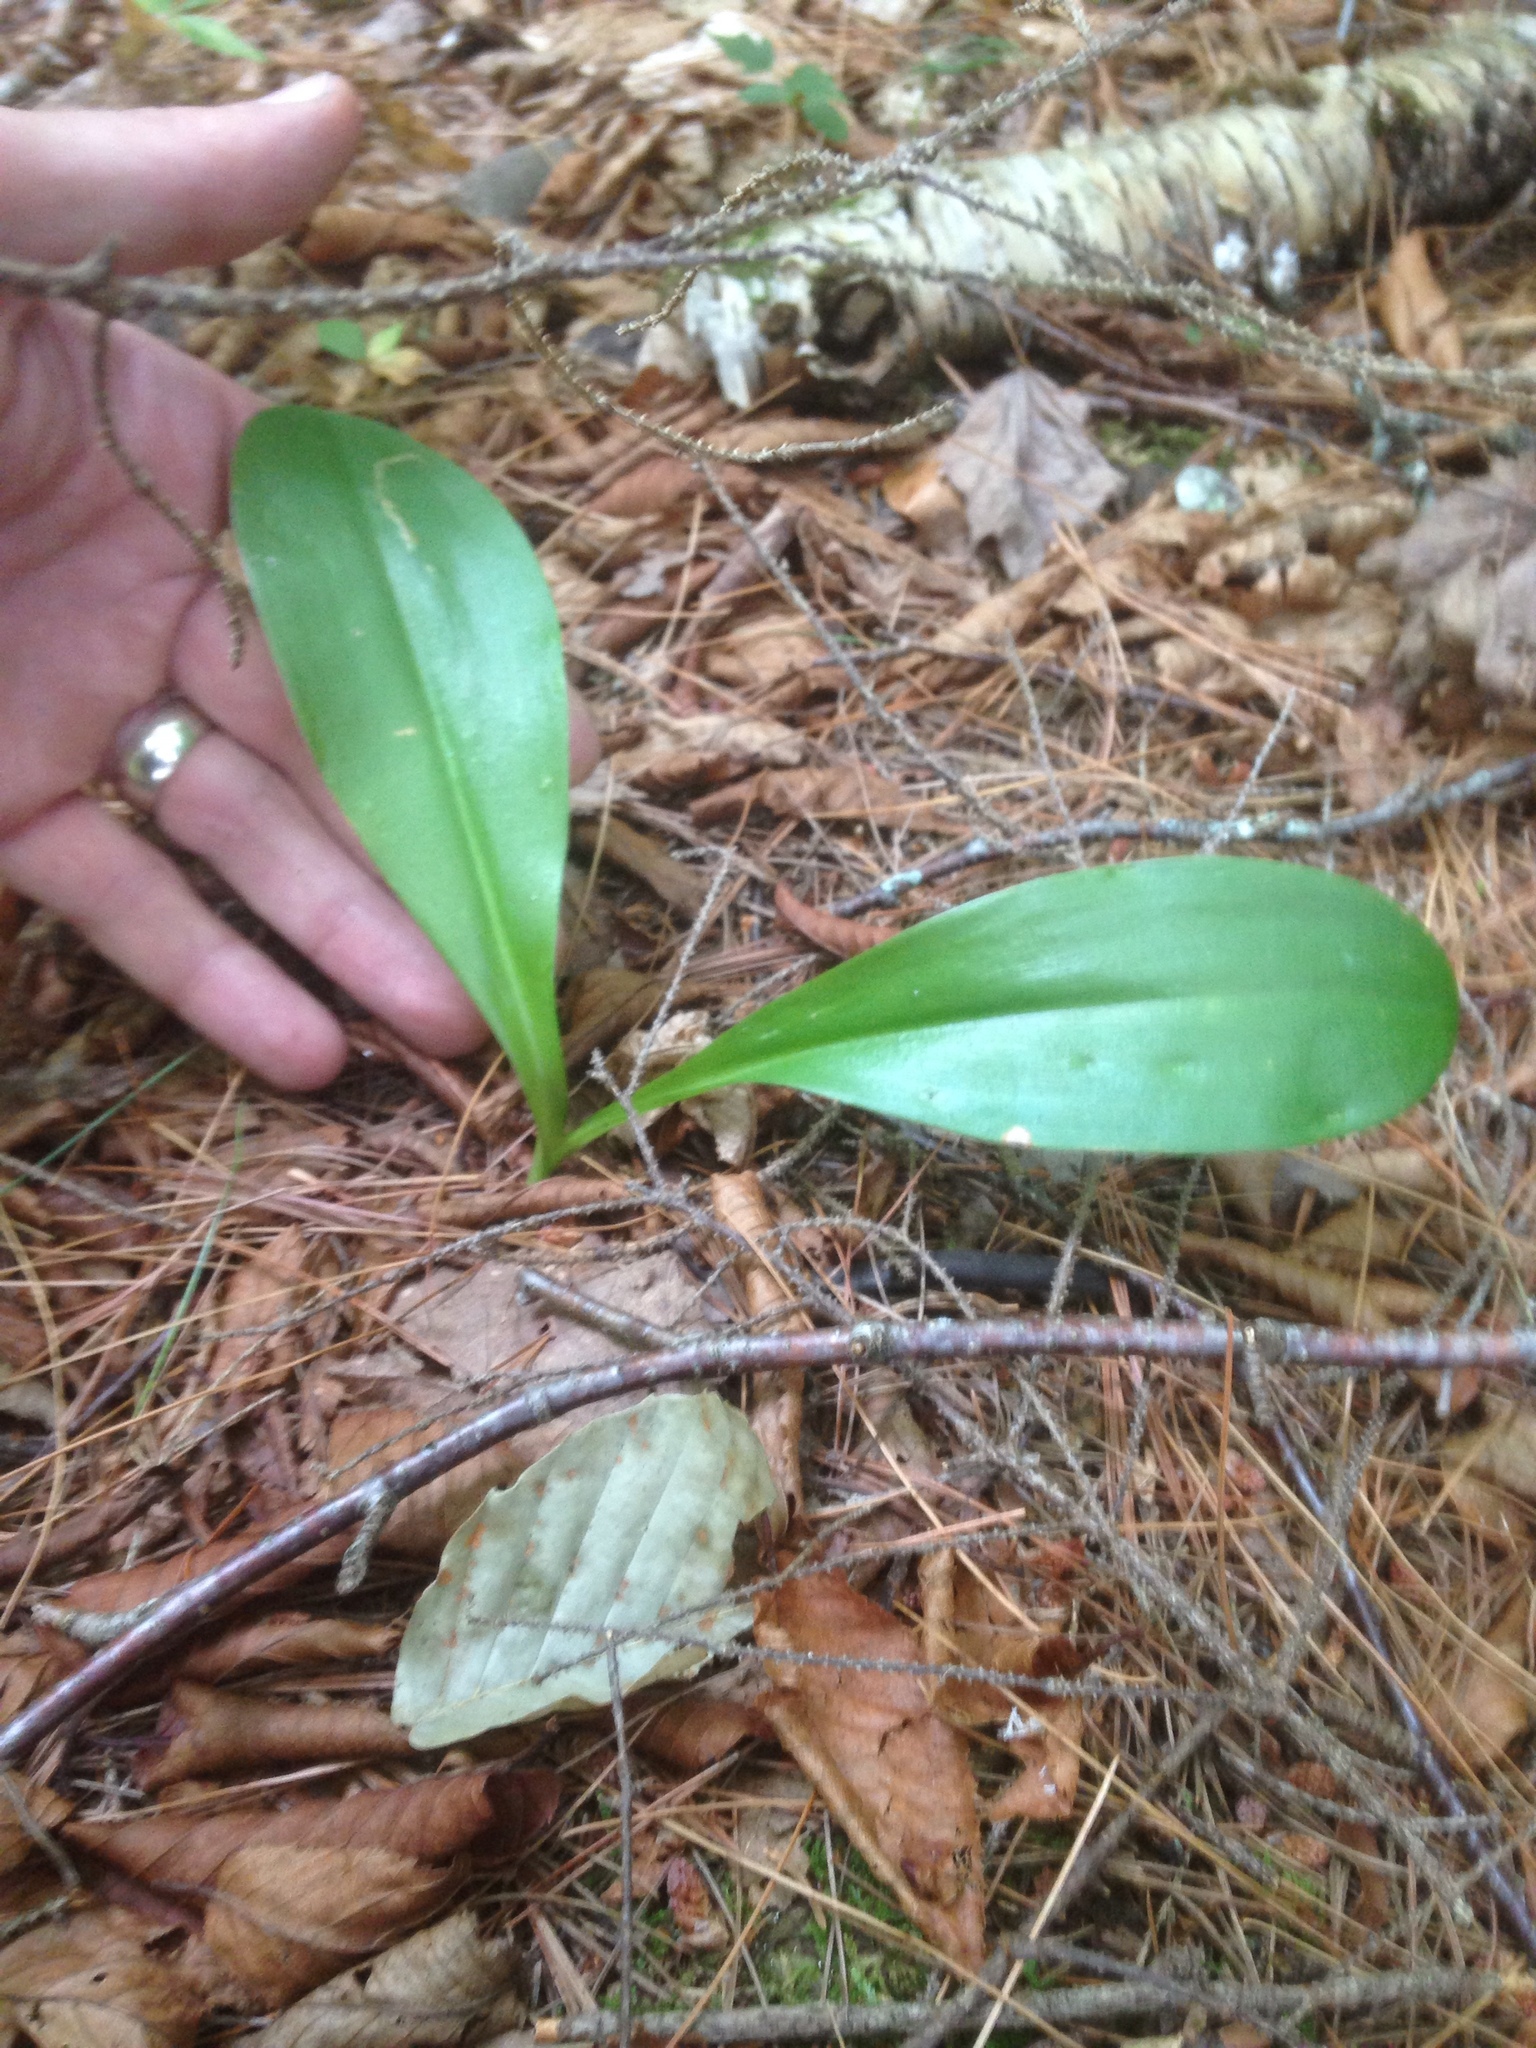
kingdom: Plantae
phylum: Tracheophyta
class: Liliopsida
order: Liliales
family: Liliaceae
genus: Clintonia
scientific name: Clintonia borealis
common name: Yellow clintonia
